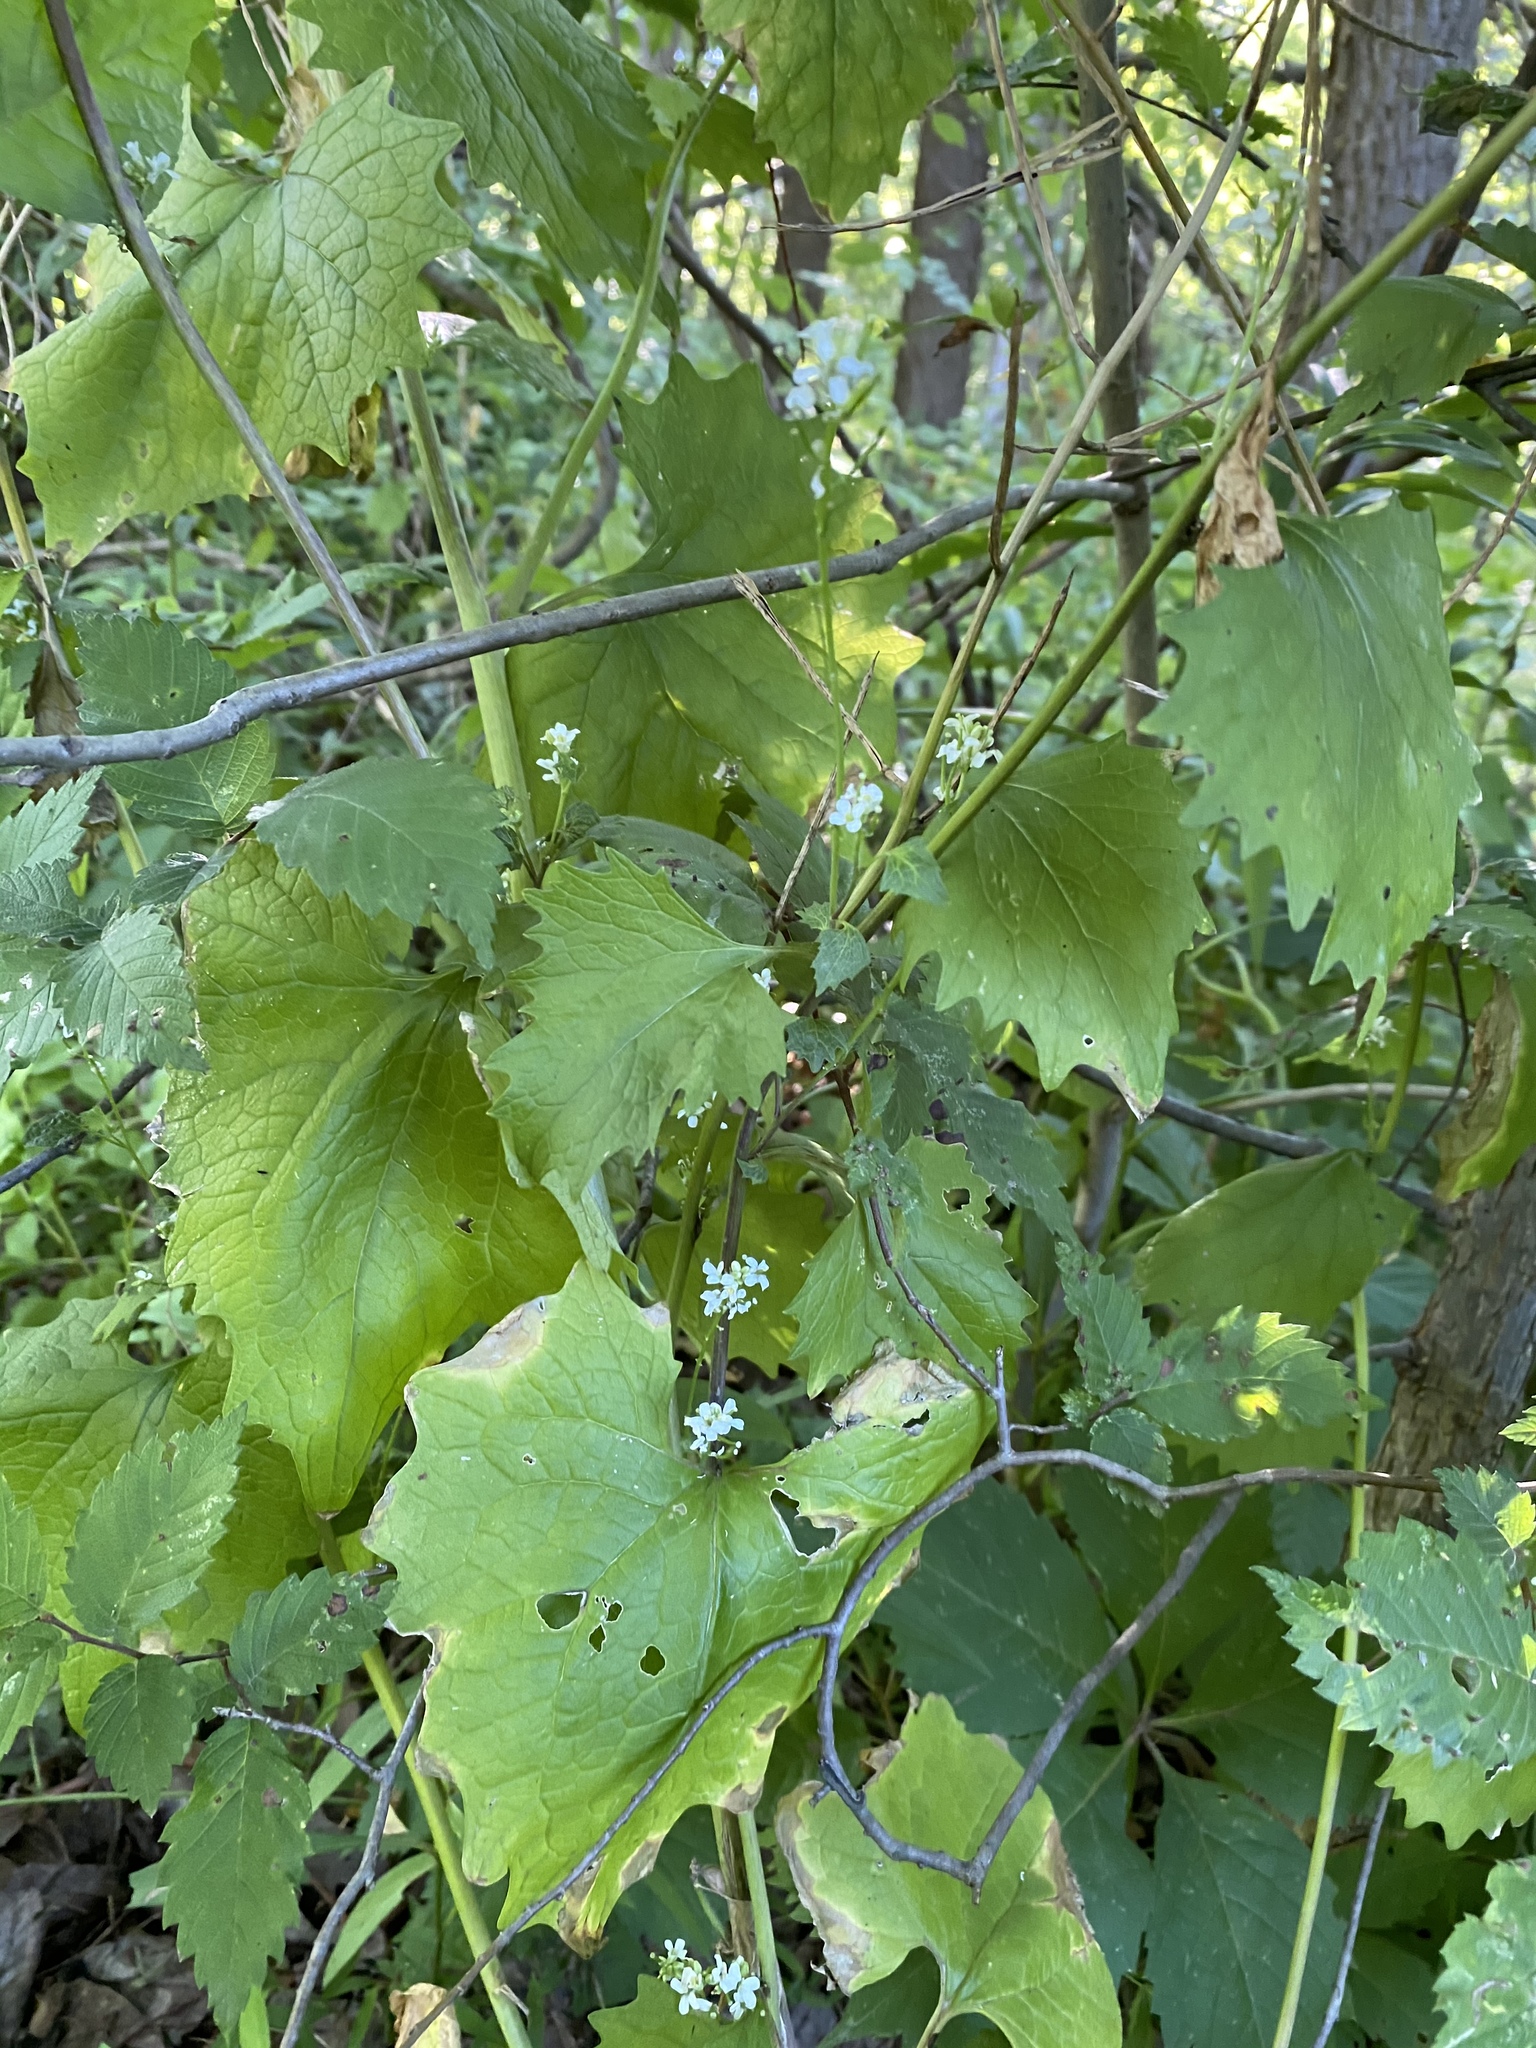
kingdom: Plantae
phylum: Tracheophyta
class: Magnoliopsida
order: Brassicales
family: Brassicaceae
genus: Alliaria
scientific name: Alliaria petiolata
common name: Garlic mustard
